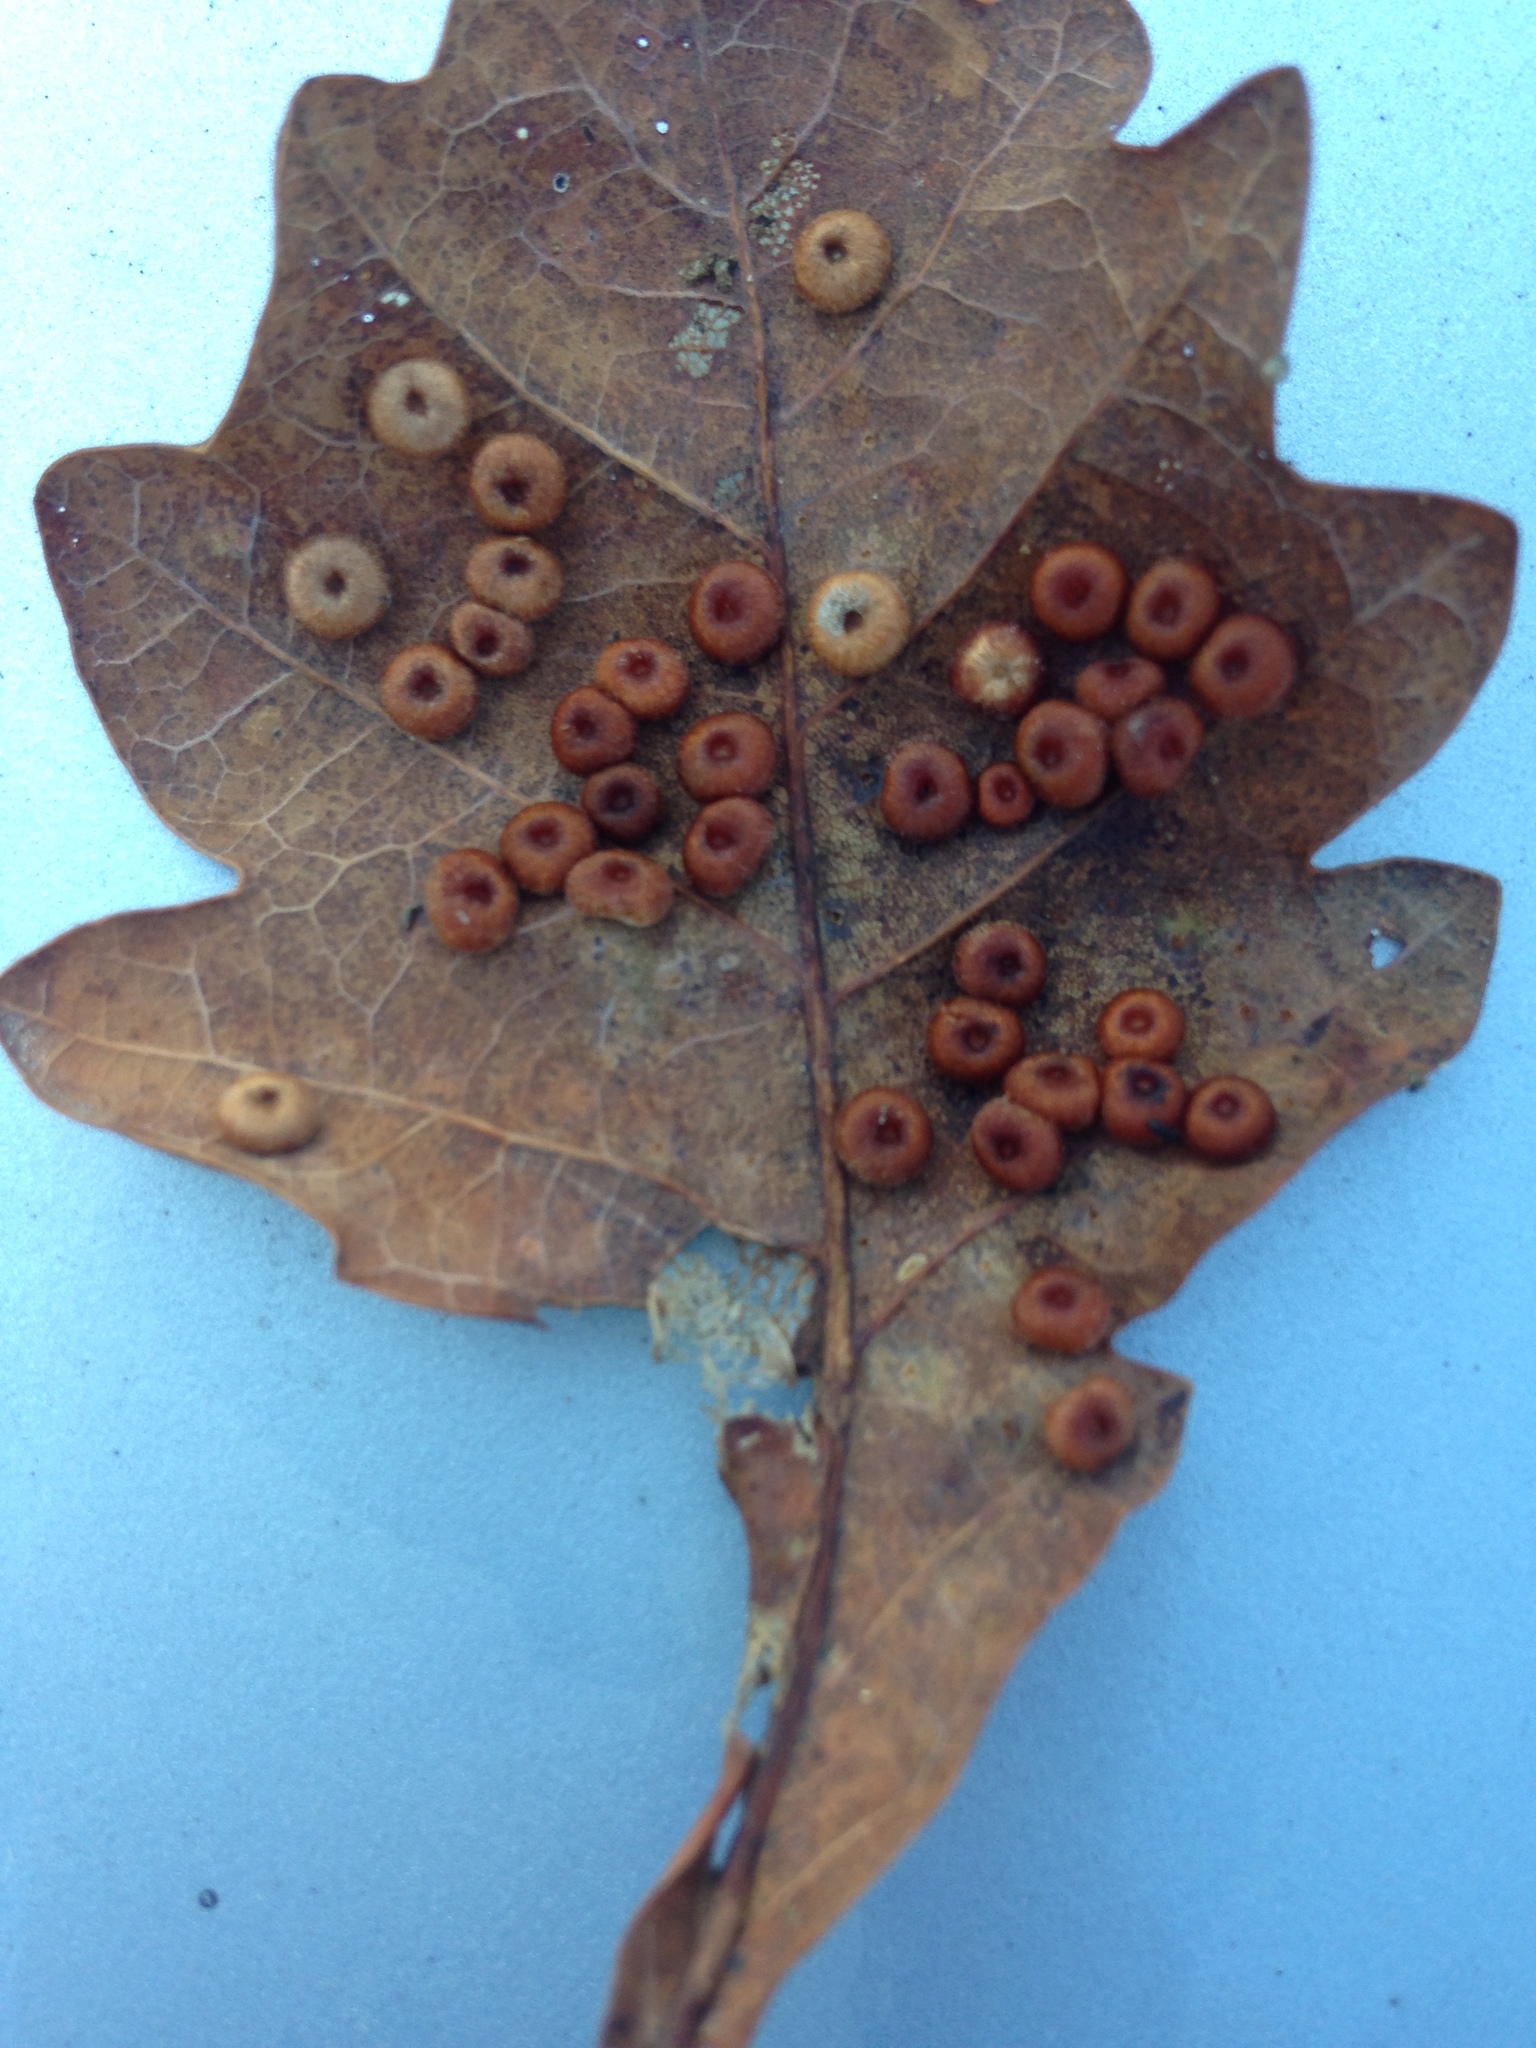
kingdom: Animalia
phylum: Arthropoda
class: Insecta
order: Hymenoptera
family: Cynipidae
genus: Neuroterus
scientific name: Neuroterus numismalis
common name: Silk-button spangle gall
